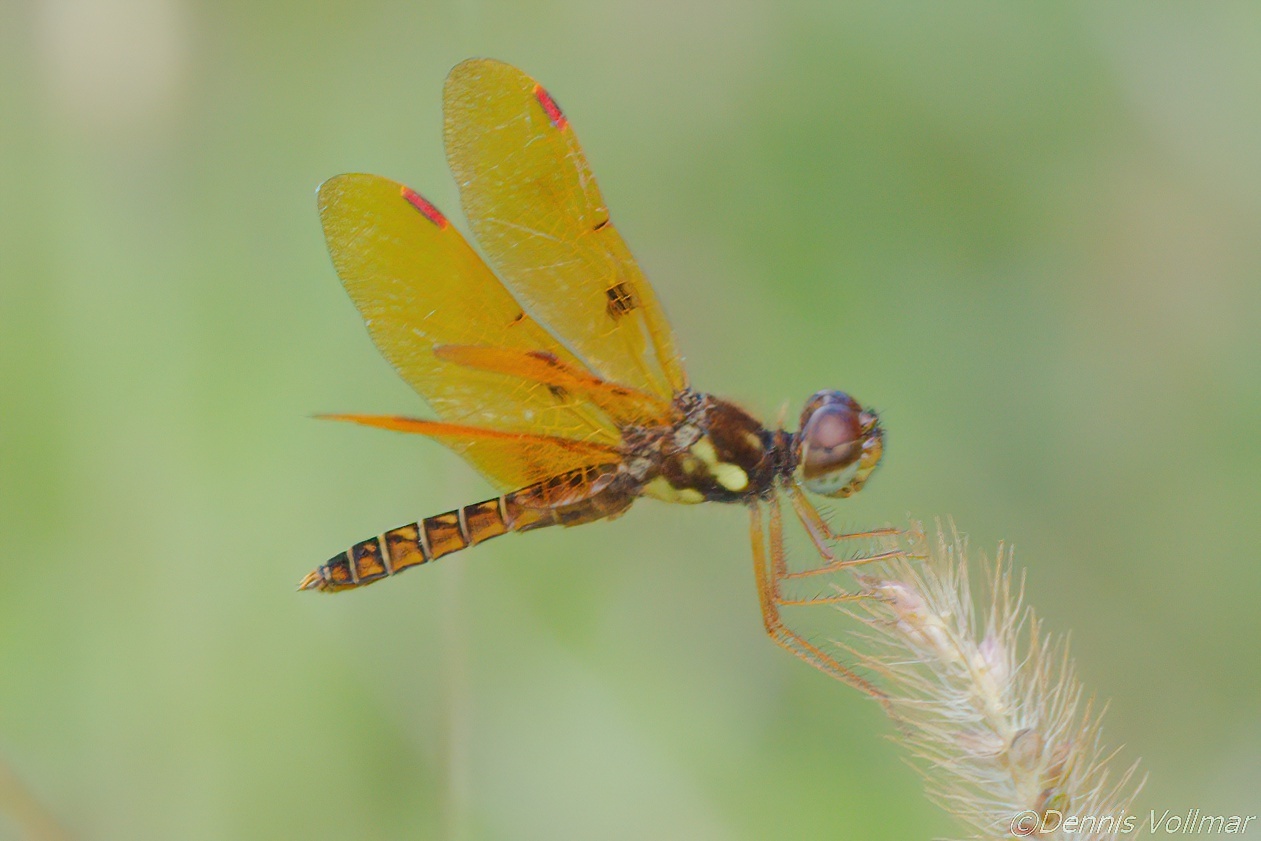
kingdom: Animalia
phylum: Arthropoda
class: Insecta
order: Odonata
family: Libellulidae
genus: Perithemis
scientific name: Perithemis tenera
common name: Eastern amberwing
